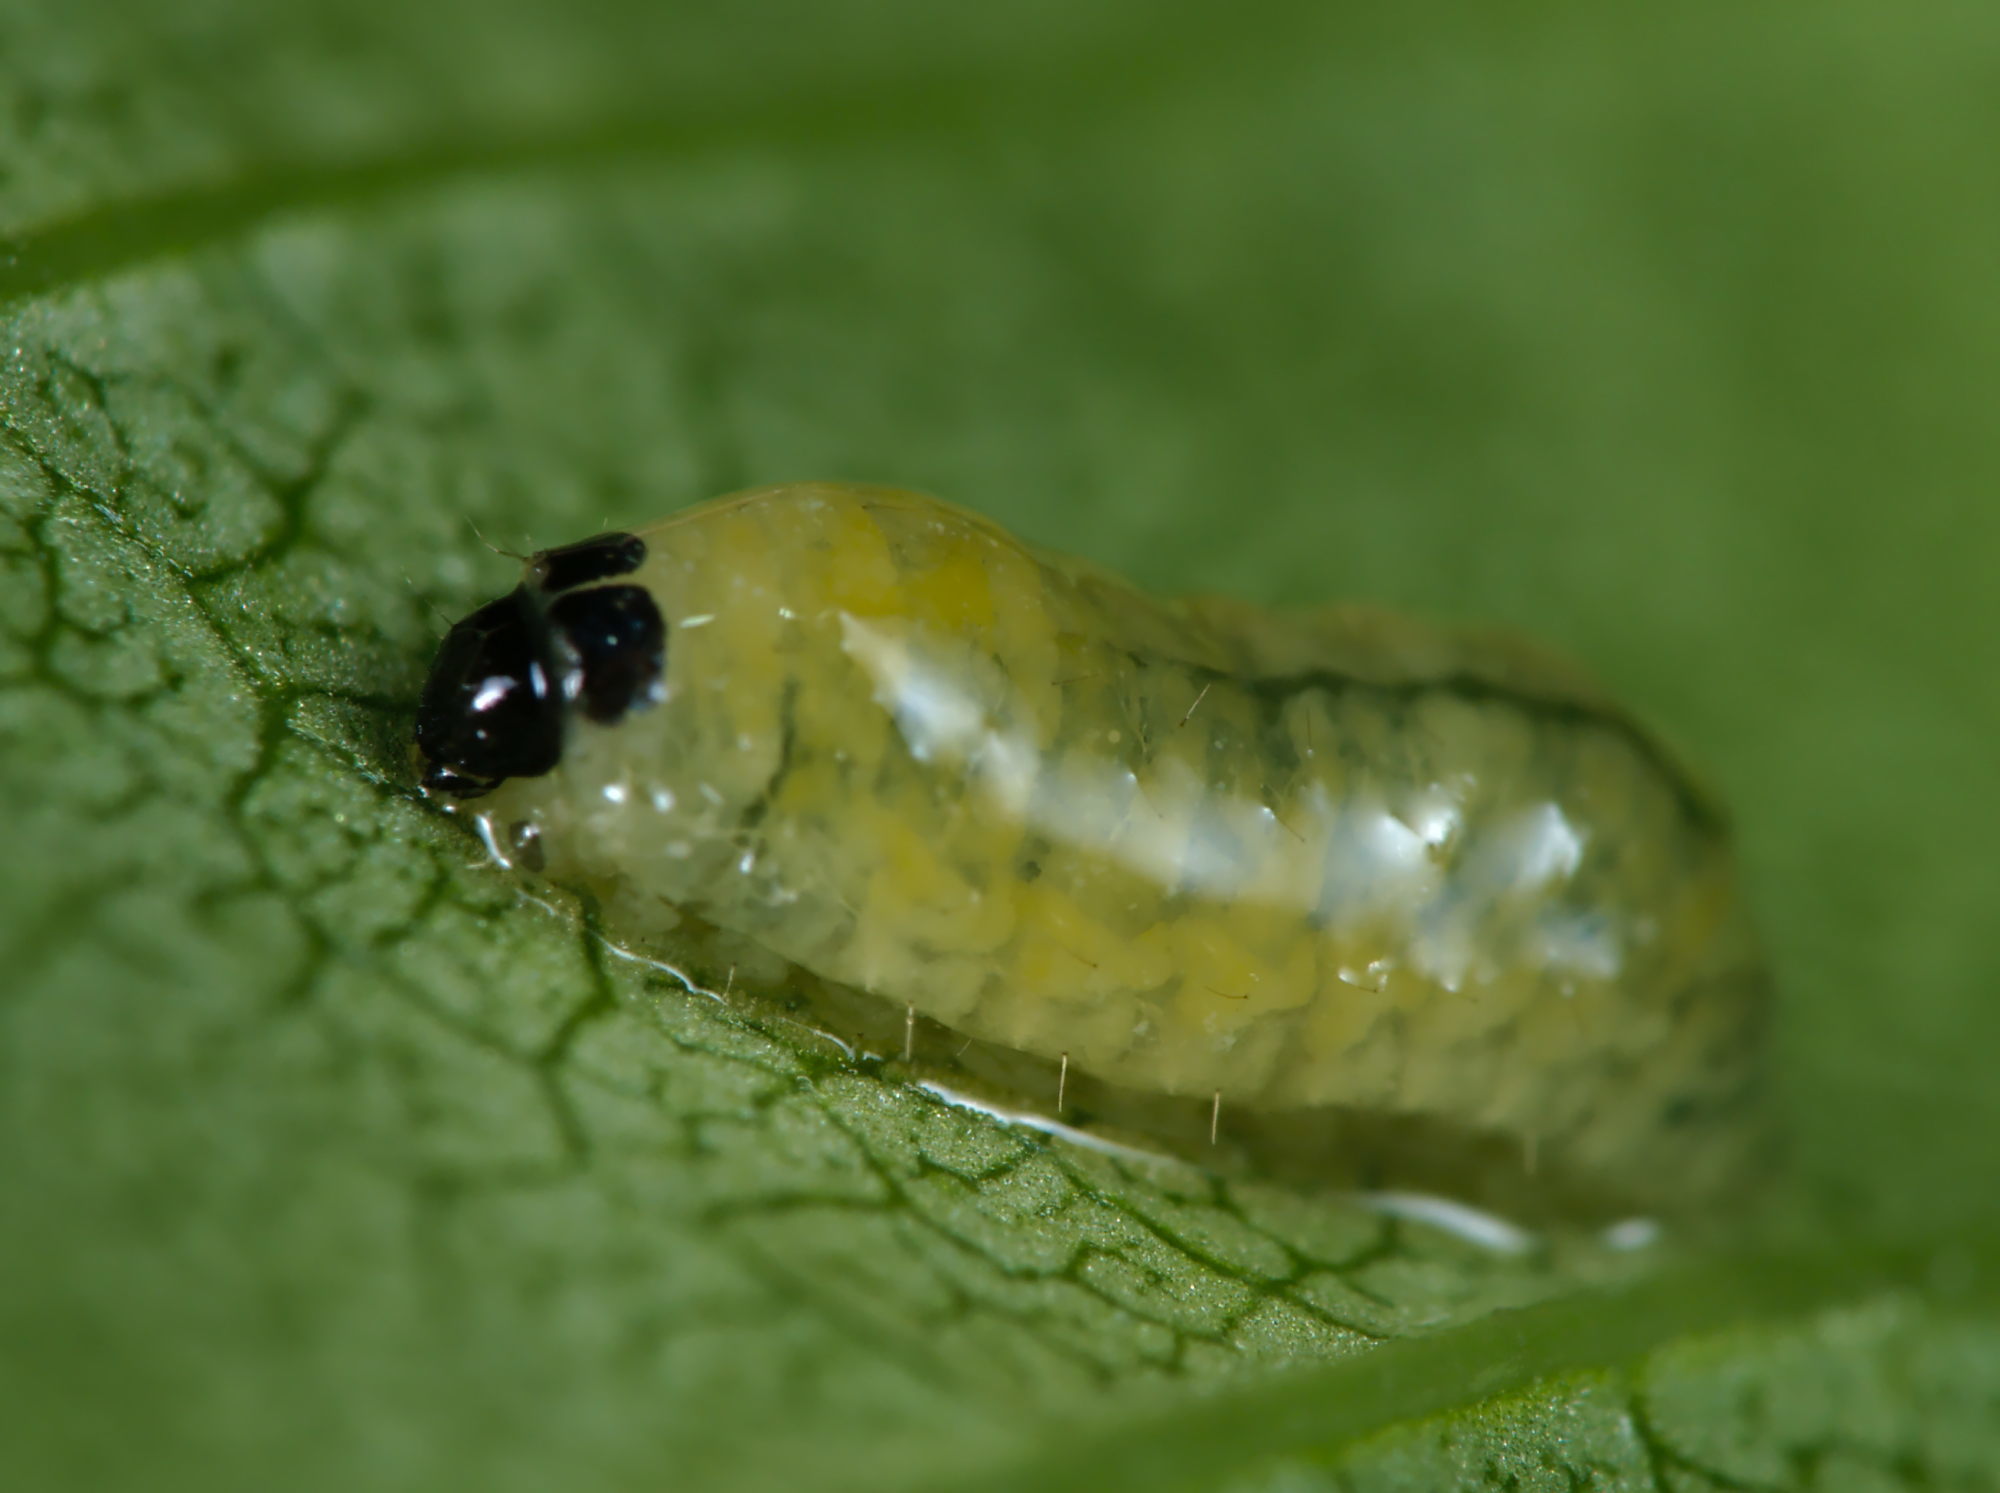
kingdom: Animalia
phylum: Arthropoda
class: Insecta
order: Coleoptera
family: Curculionidae
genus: Stereonychus
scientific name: Stereonychus fraxini
